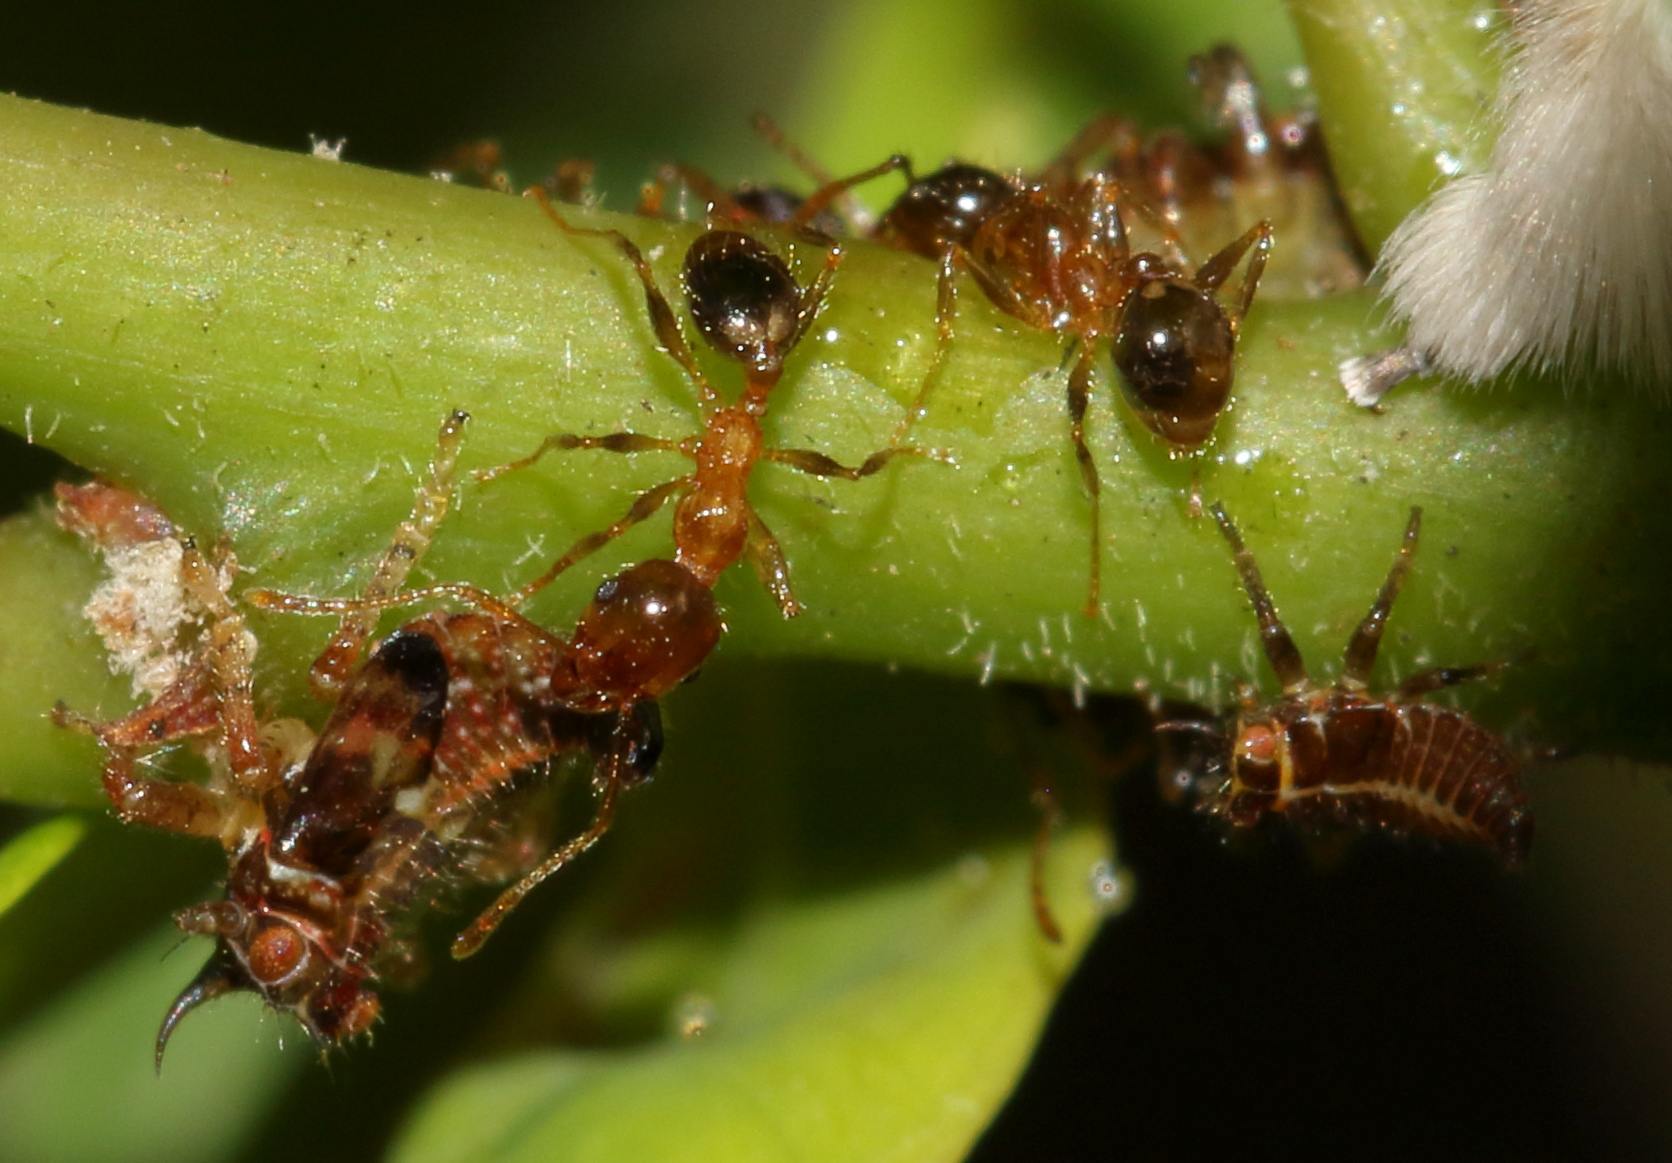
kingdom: Animalia
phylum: Arthropoda
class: Insecta
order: Hymenoptera
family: Formicidae
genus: Pheidole
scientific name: Pheidole megacephala
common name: Bigheaded ant
